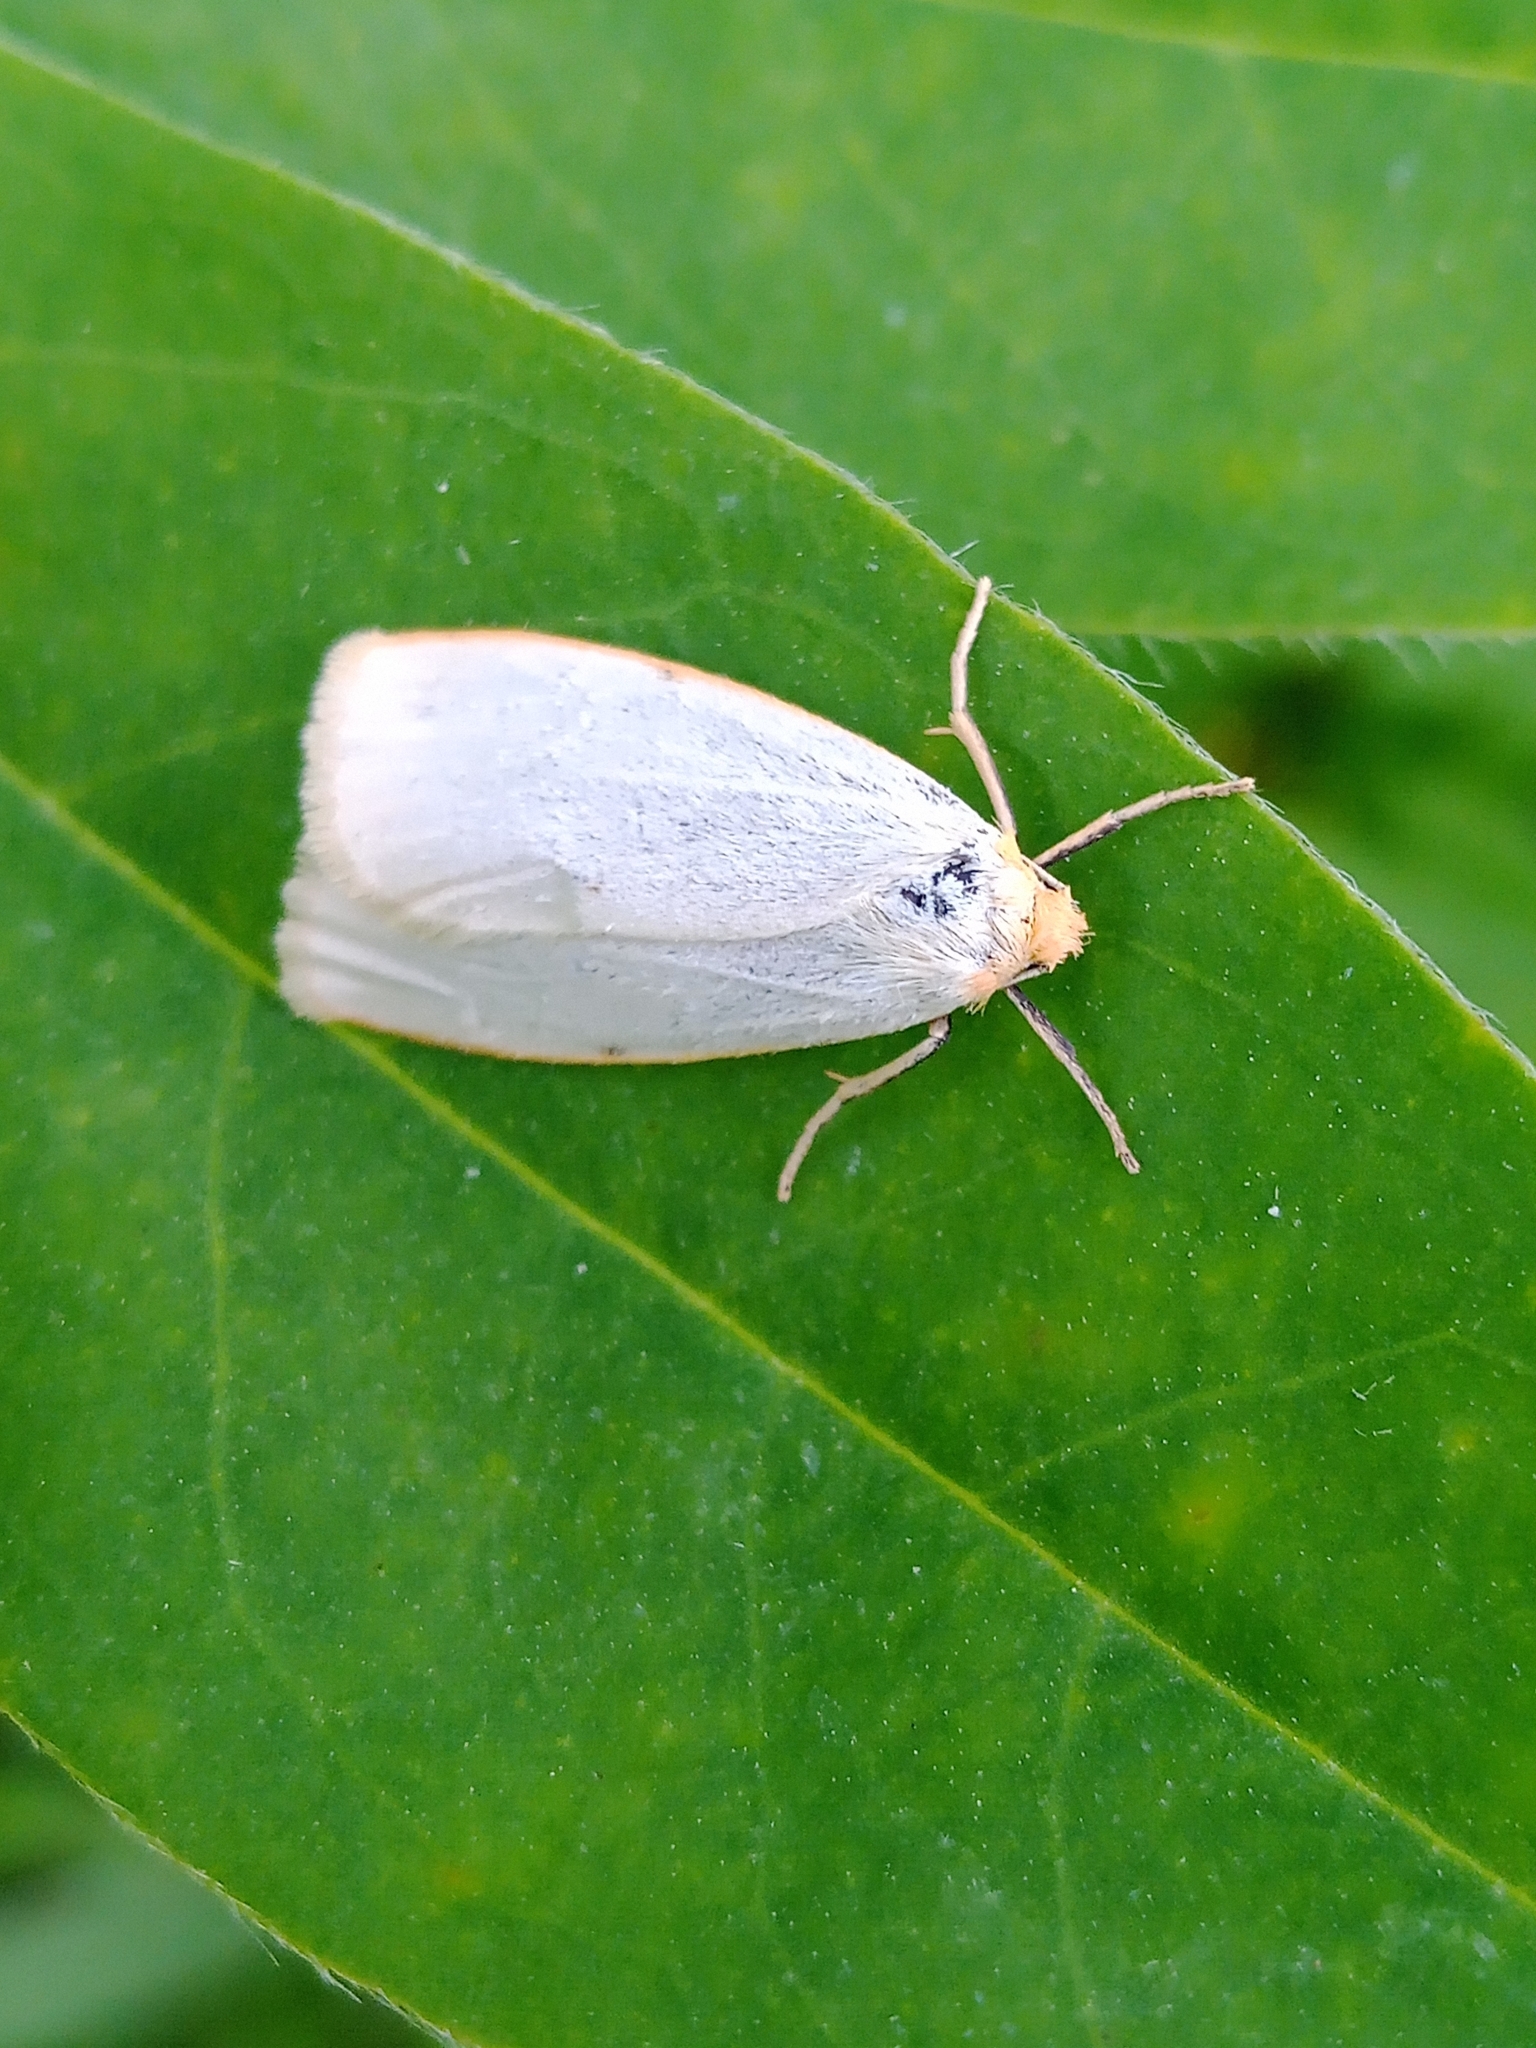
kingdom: Animalia
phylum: Arthropoda
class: Insecta
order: Lepidoptera
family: Erebidae
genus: Cybosia
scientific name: Cybosia mesomella
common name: Four-dotted footman
